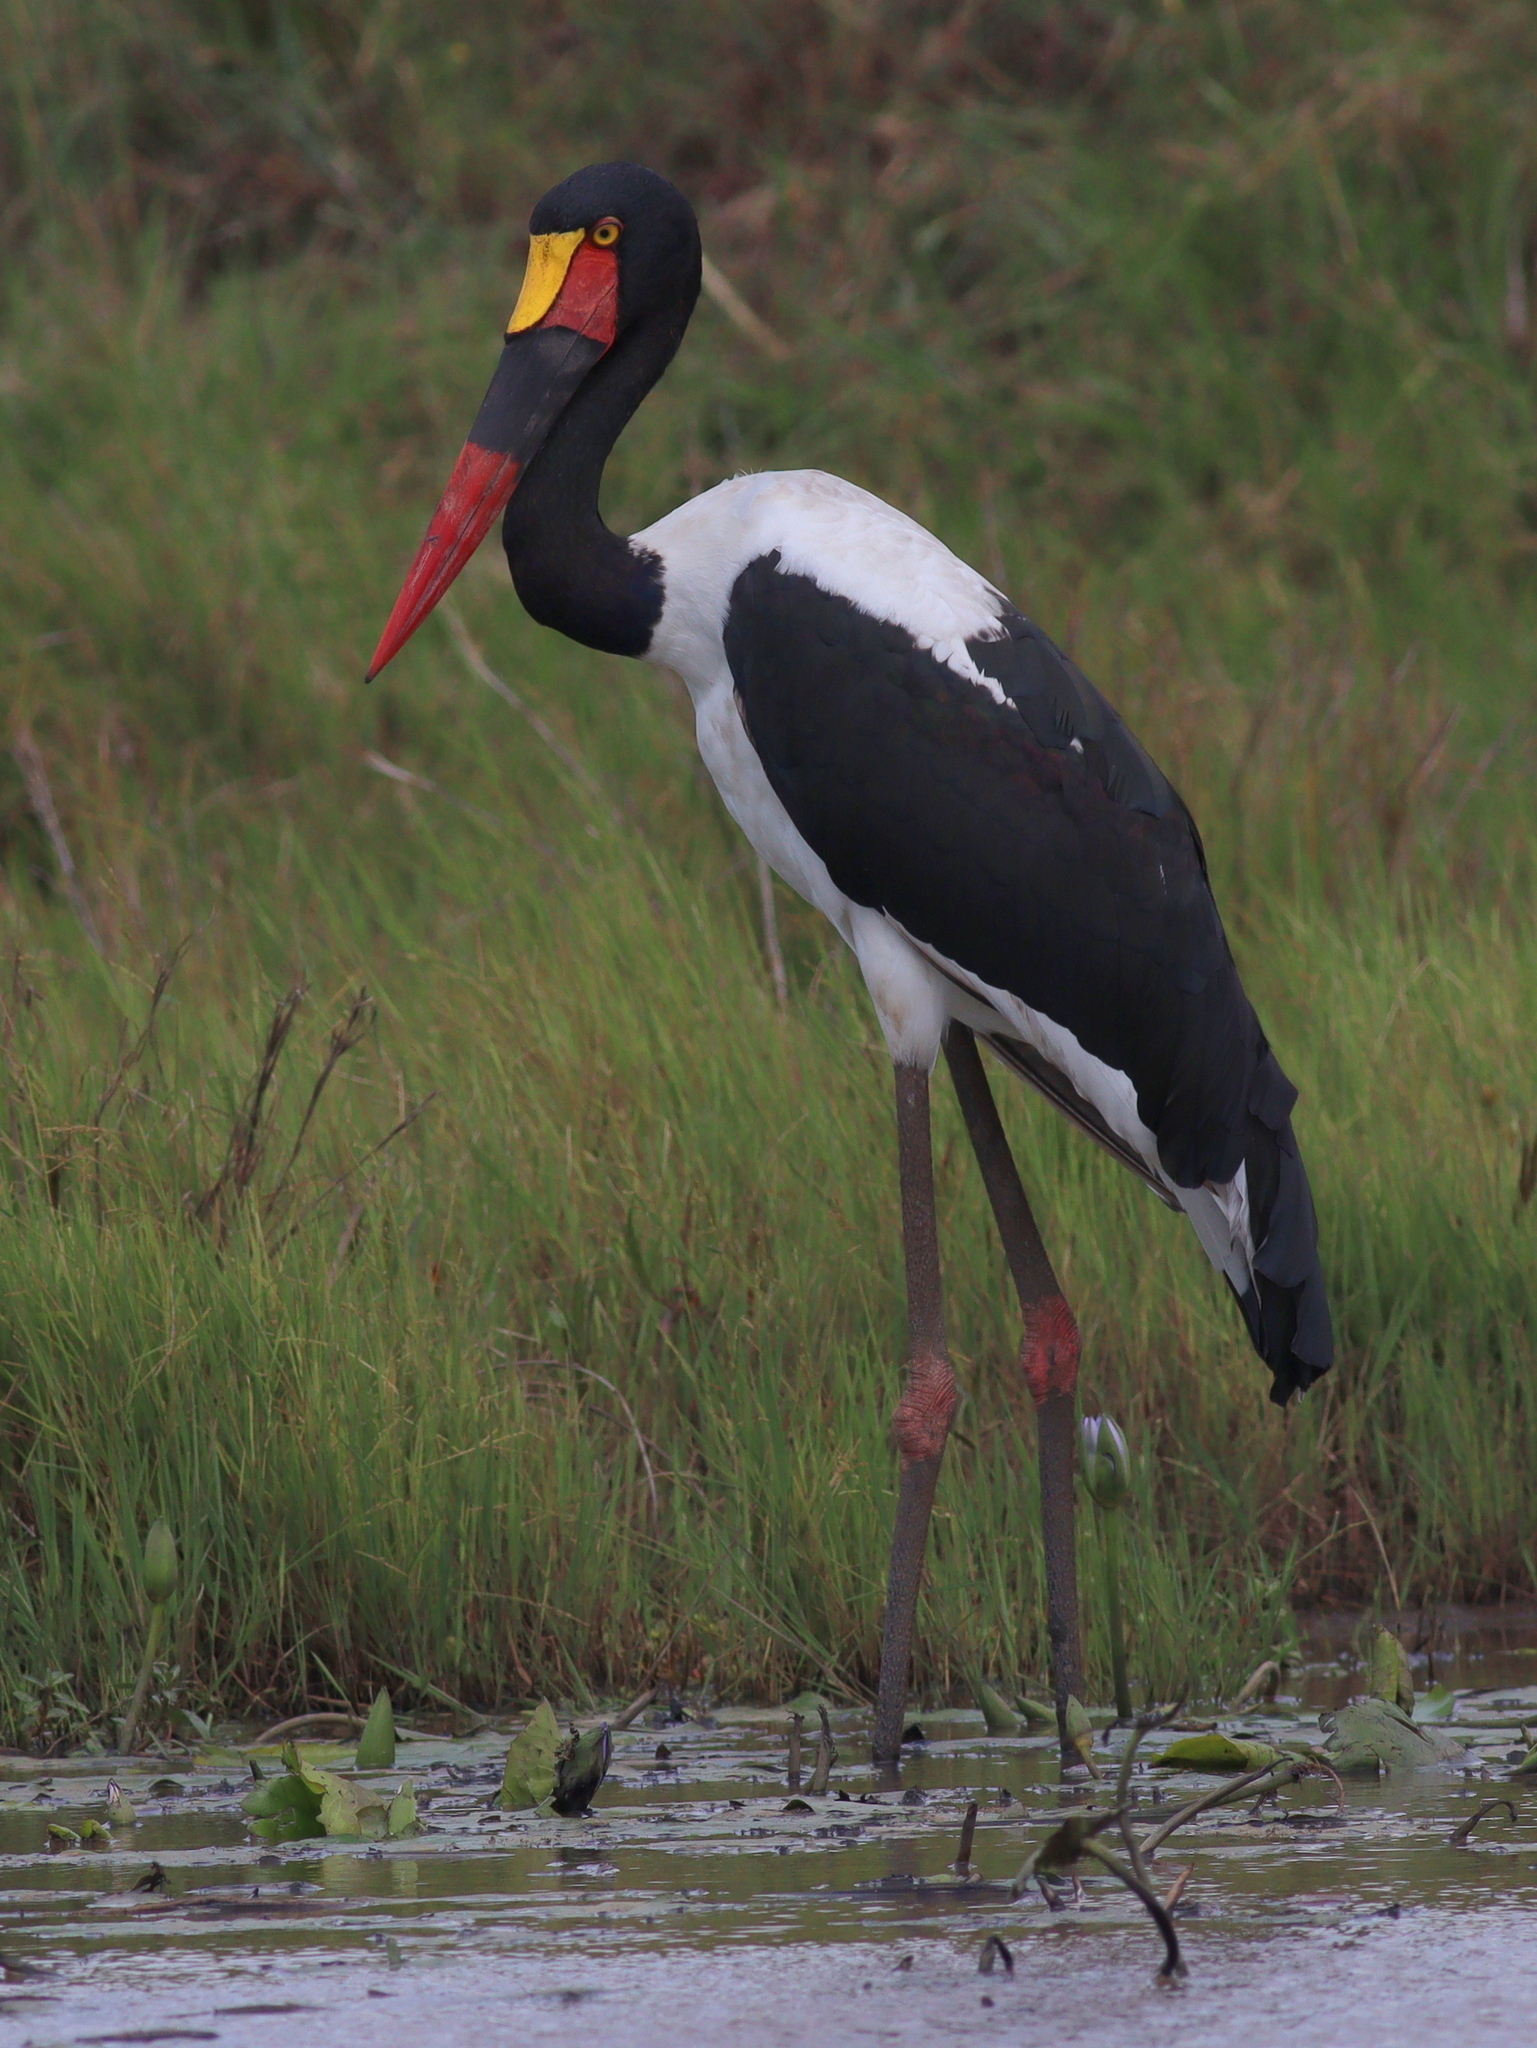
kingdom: Animalia
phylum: Chordata
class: Aves
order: Ciconiiformes
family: Ciconiidae
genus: Ephippiorhynchus
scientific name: Ephippiorhynchus senegalensis
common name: Saddle-billed stork
